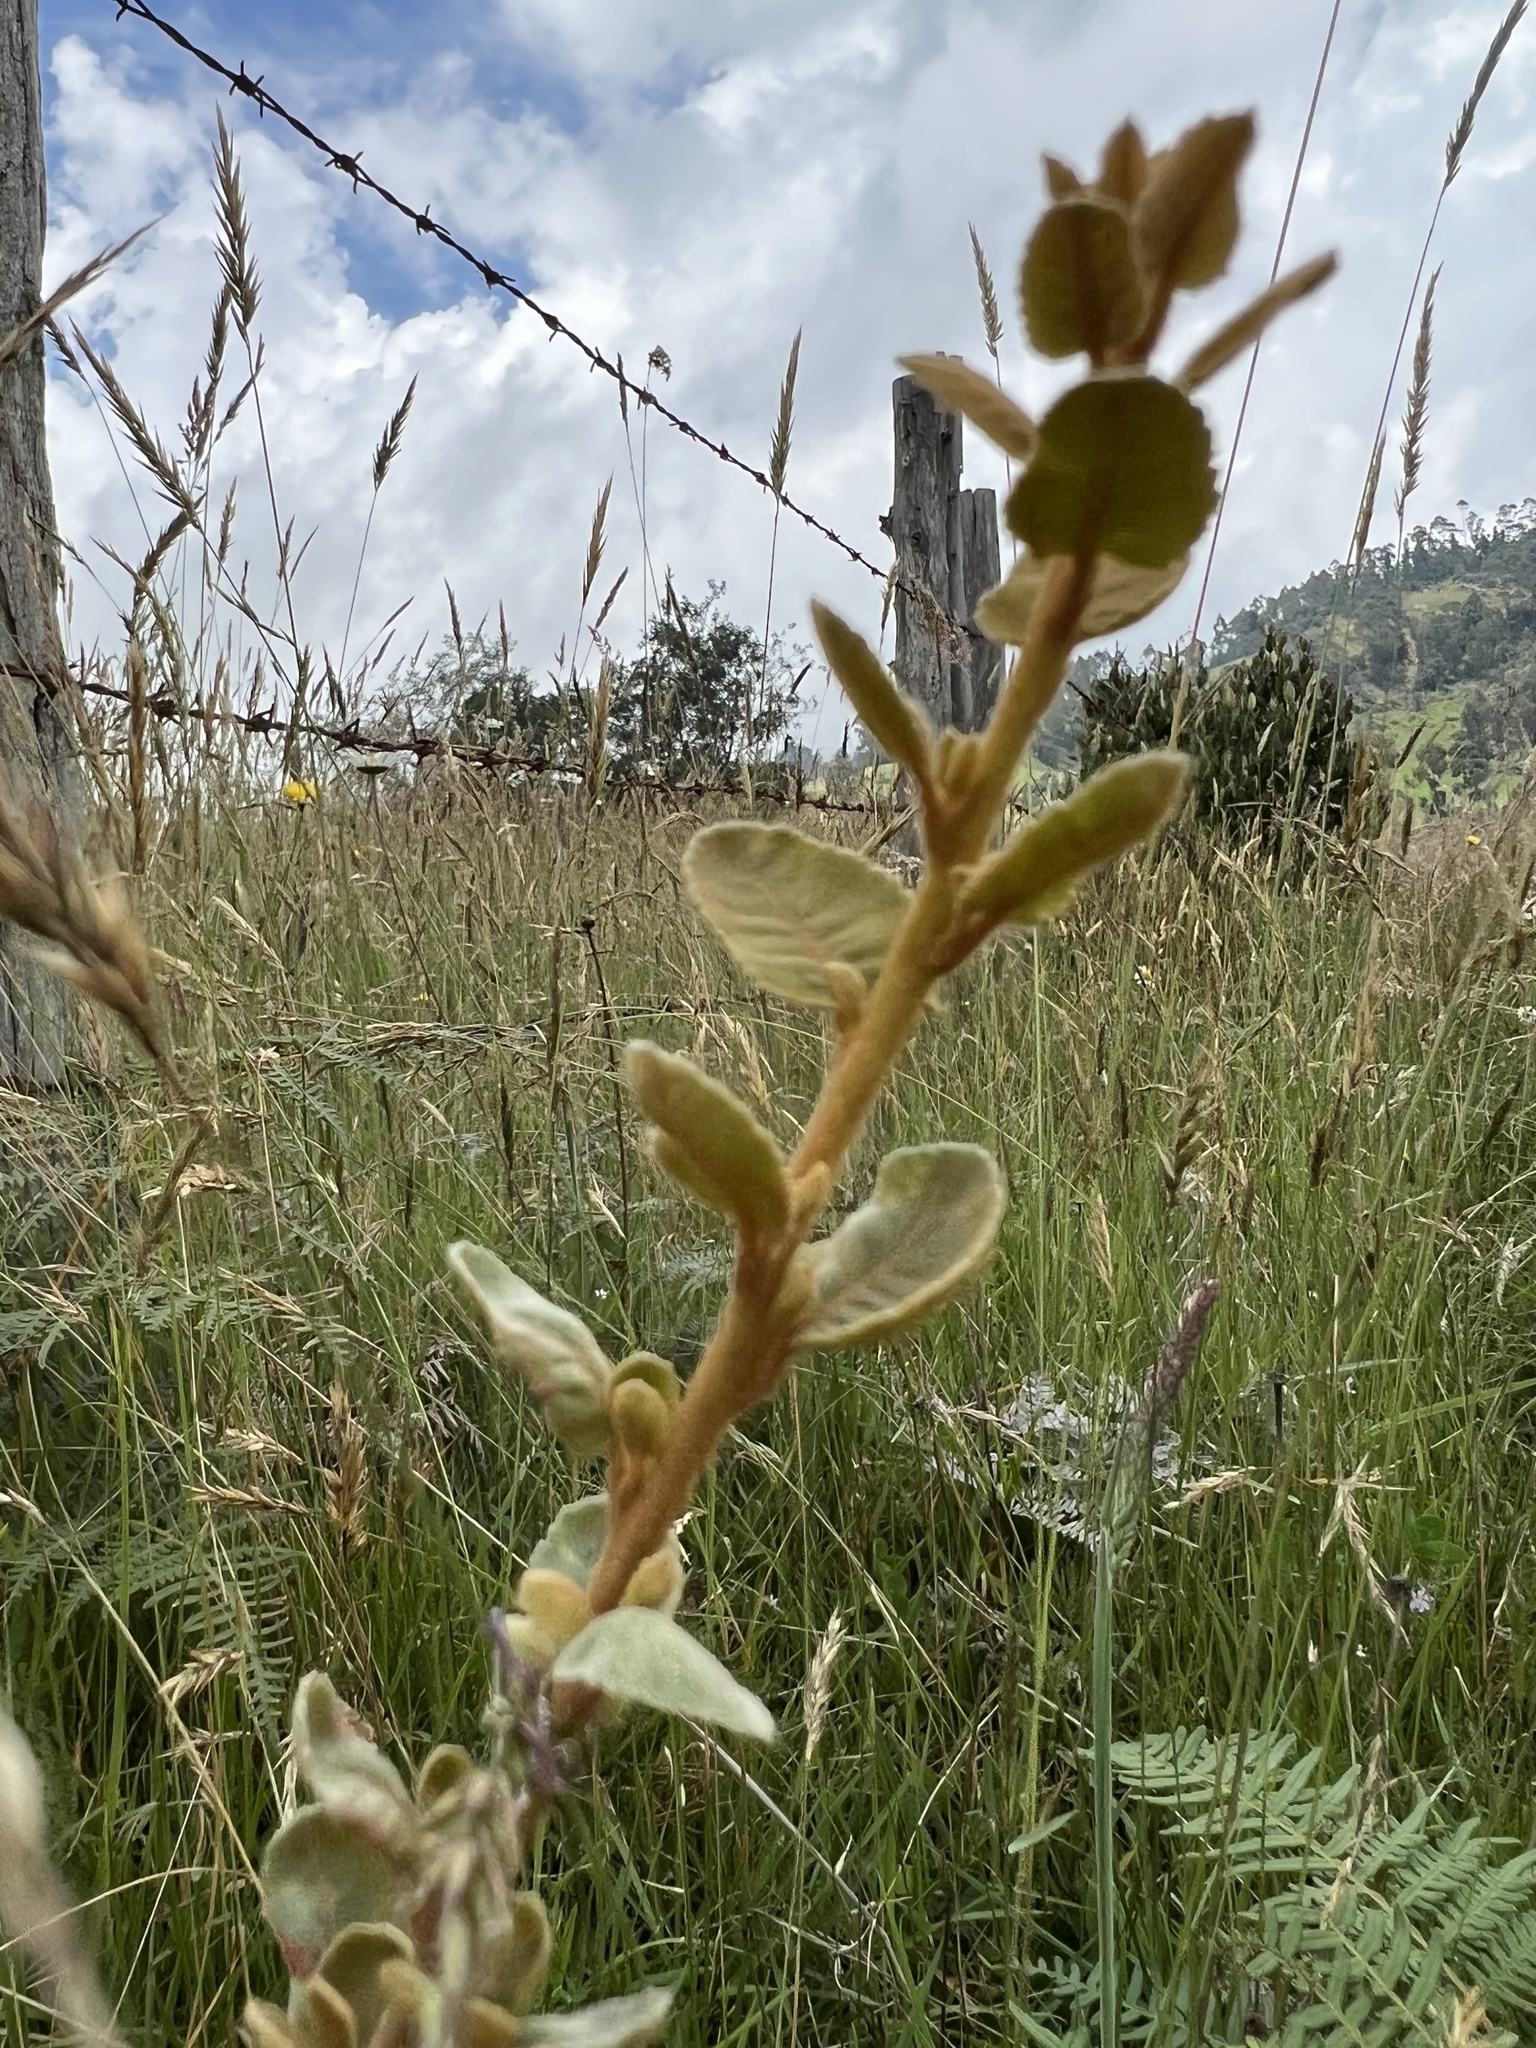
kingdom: Plantae
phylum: Tracheophyta
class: Magnoliopsida
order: Rosales
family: Rosaceae
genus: Hesperomeles
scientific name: Hesperomeles goudotiana
